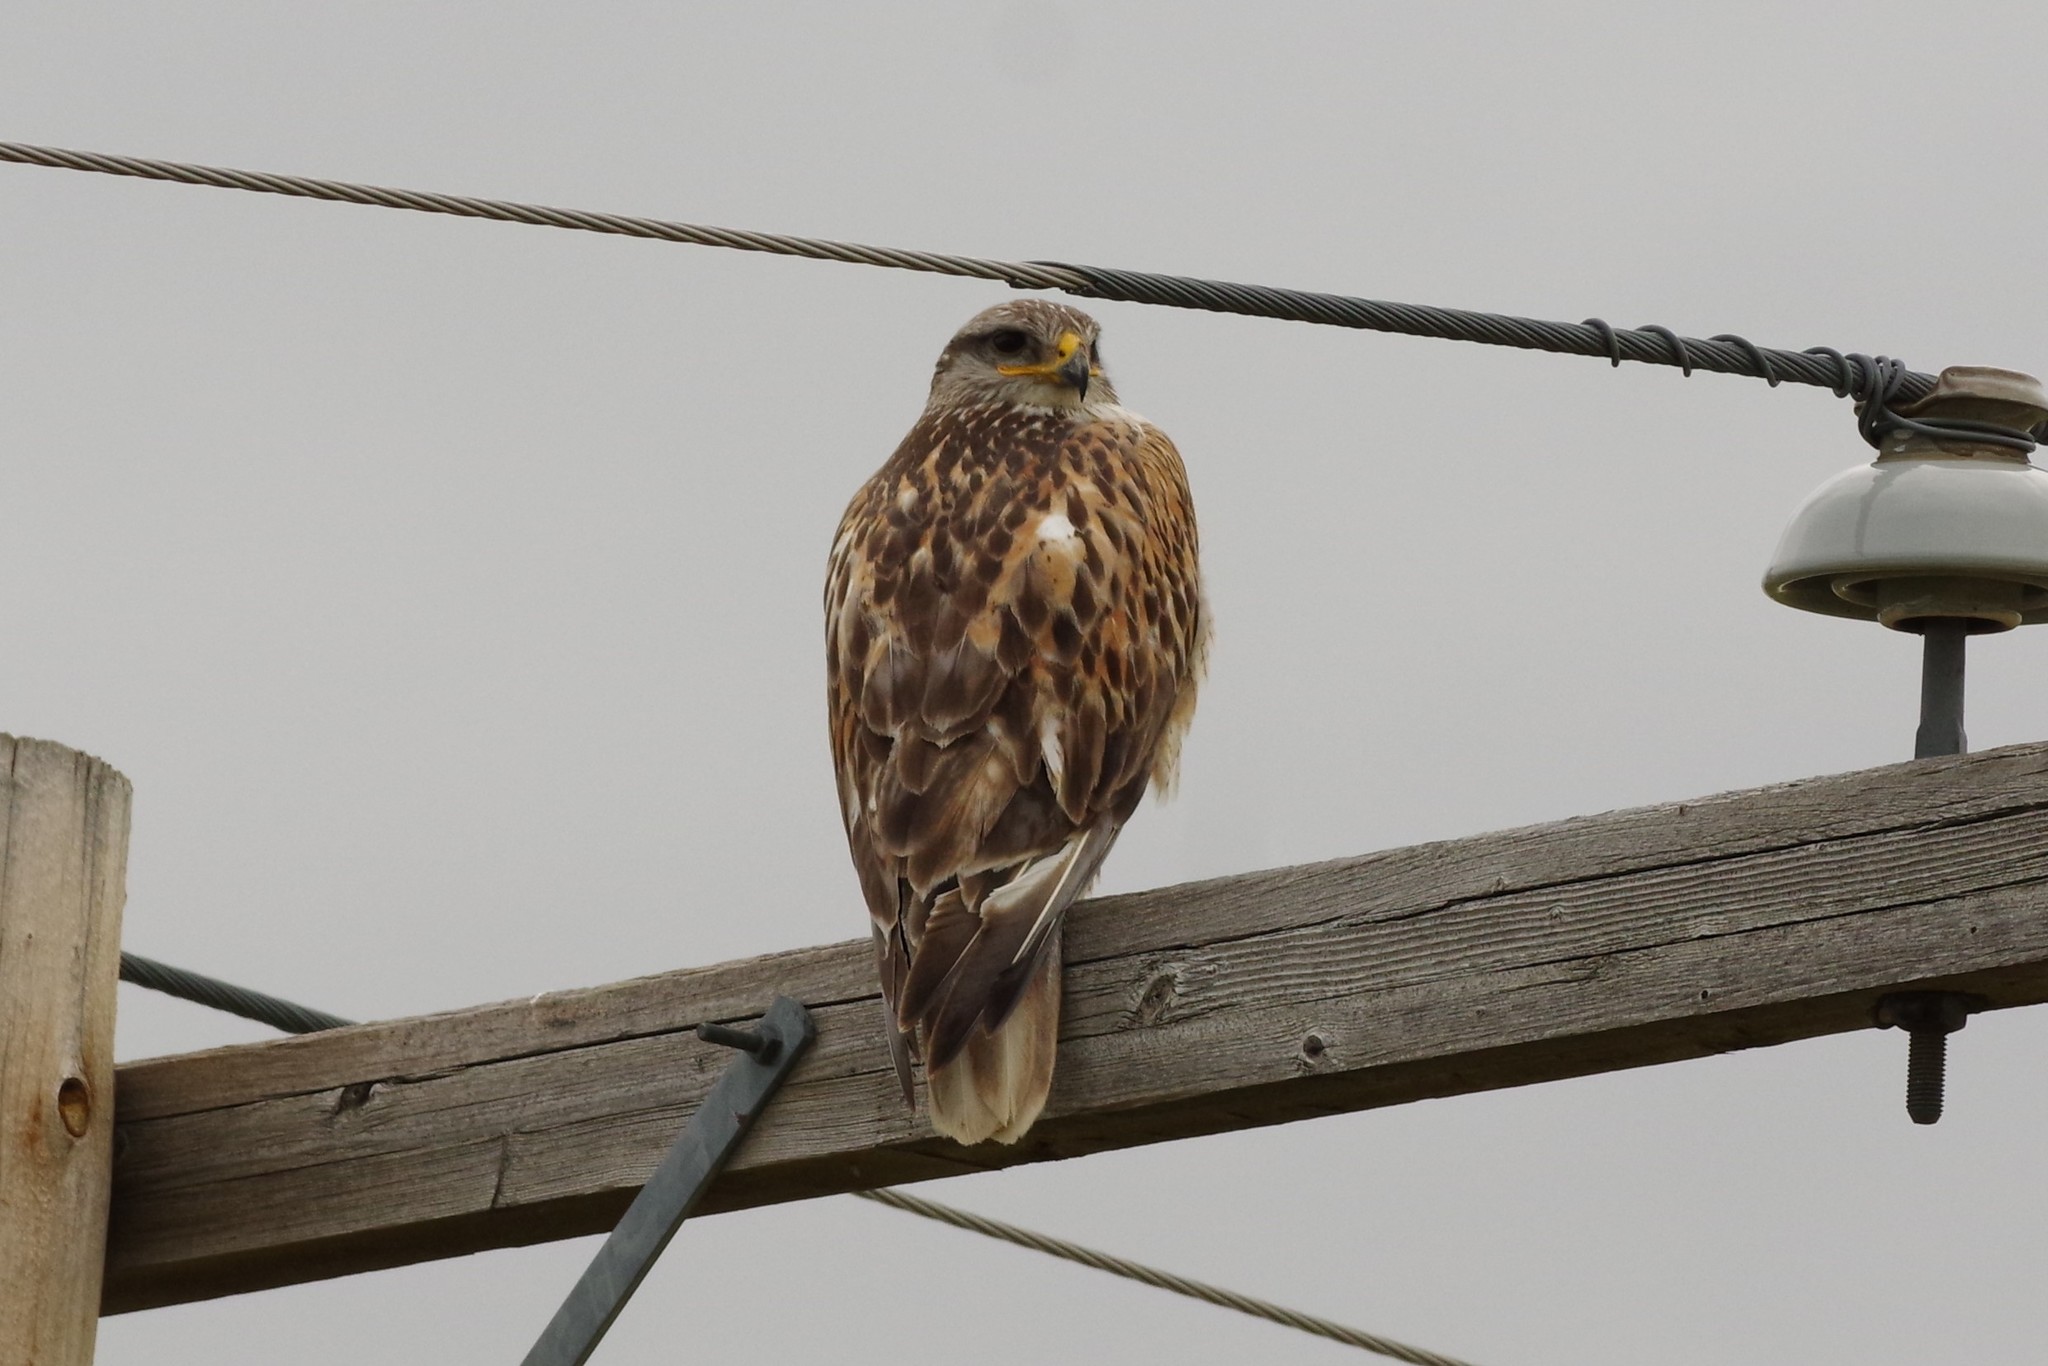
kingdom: Animalia
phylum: Chordata
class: Aves
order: Accipitriformes
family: Accipitridae
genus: Buteo
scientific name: Buteo regalis
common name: Ferruginous hawk
